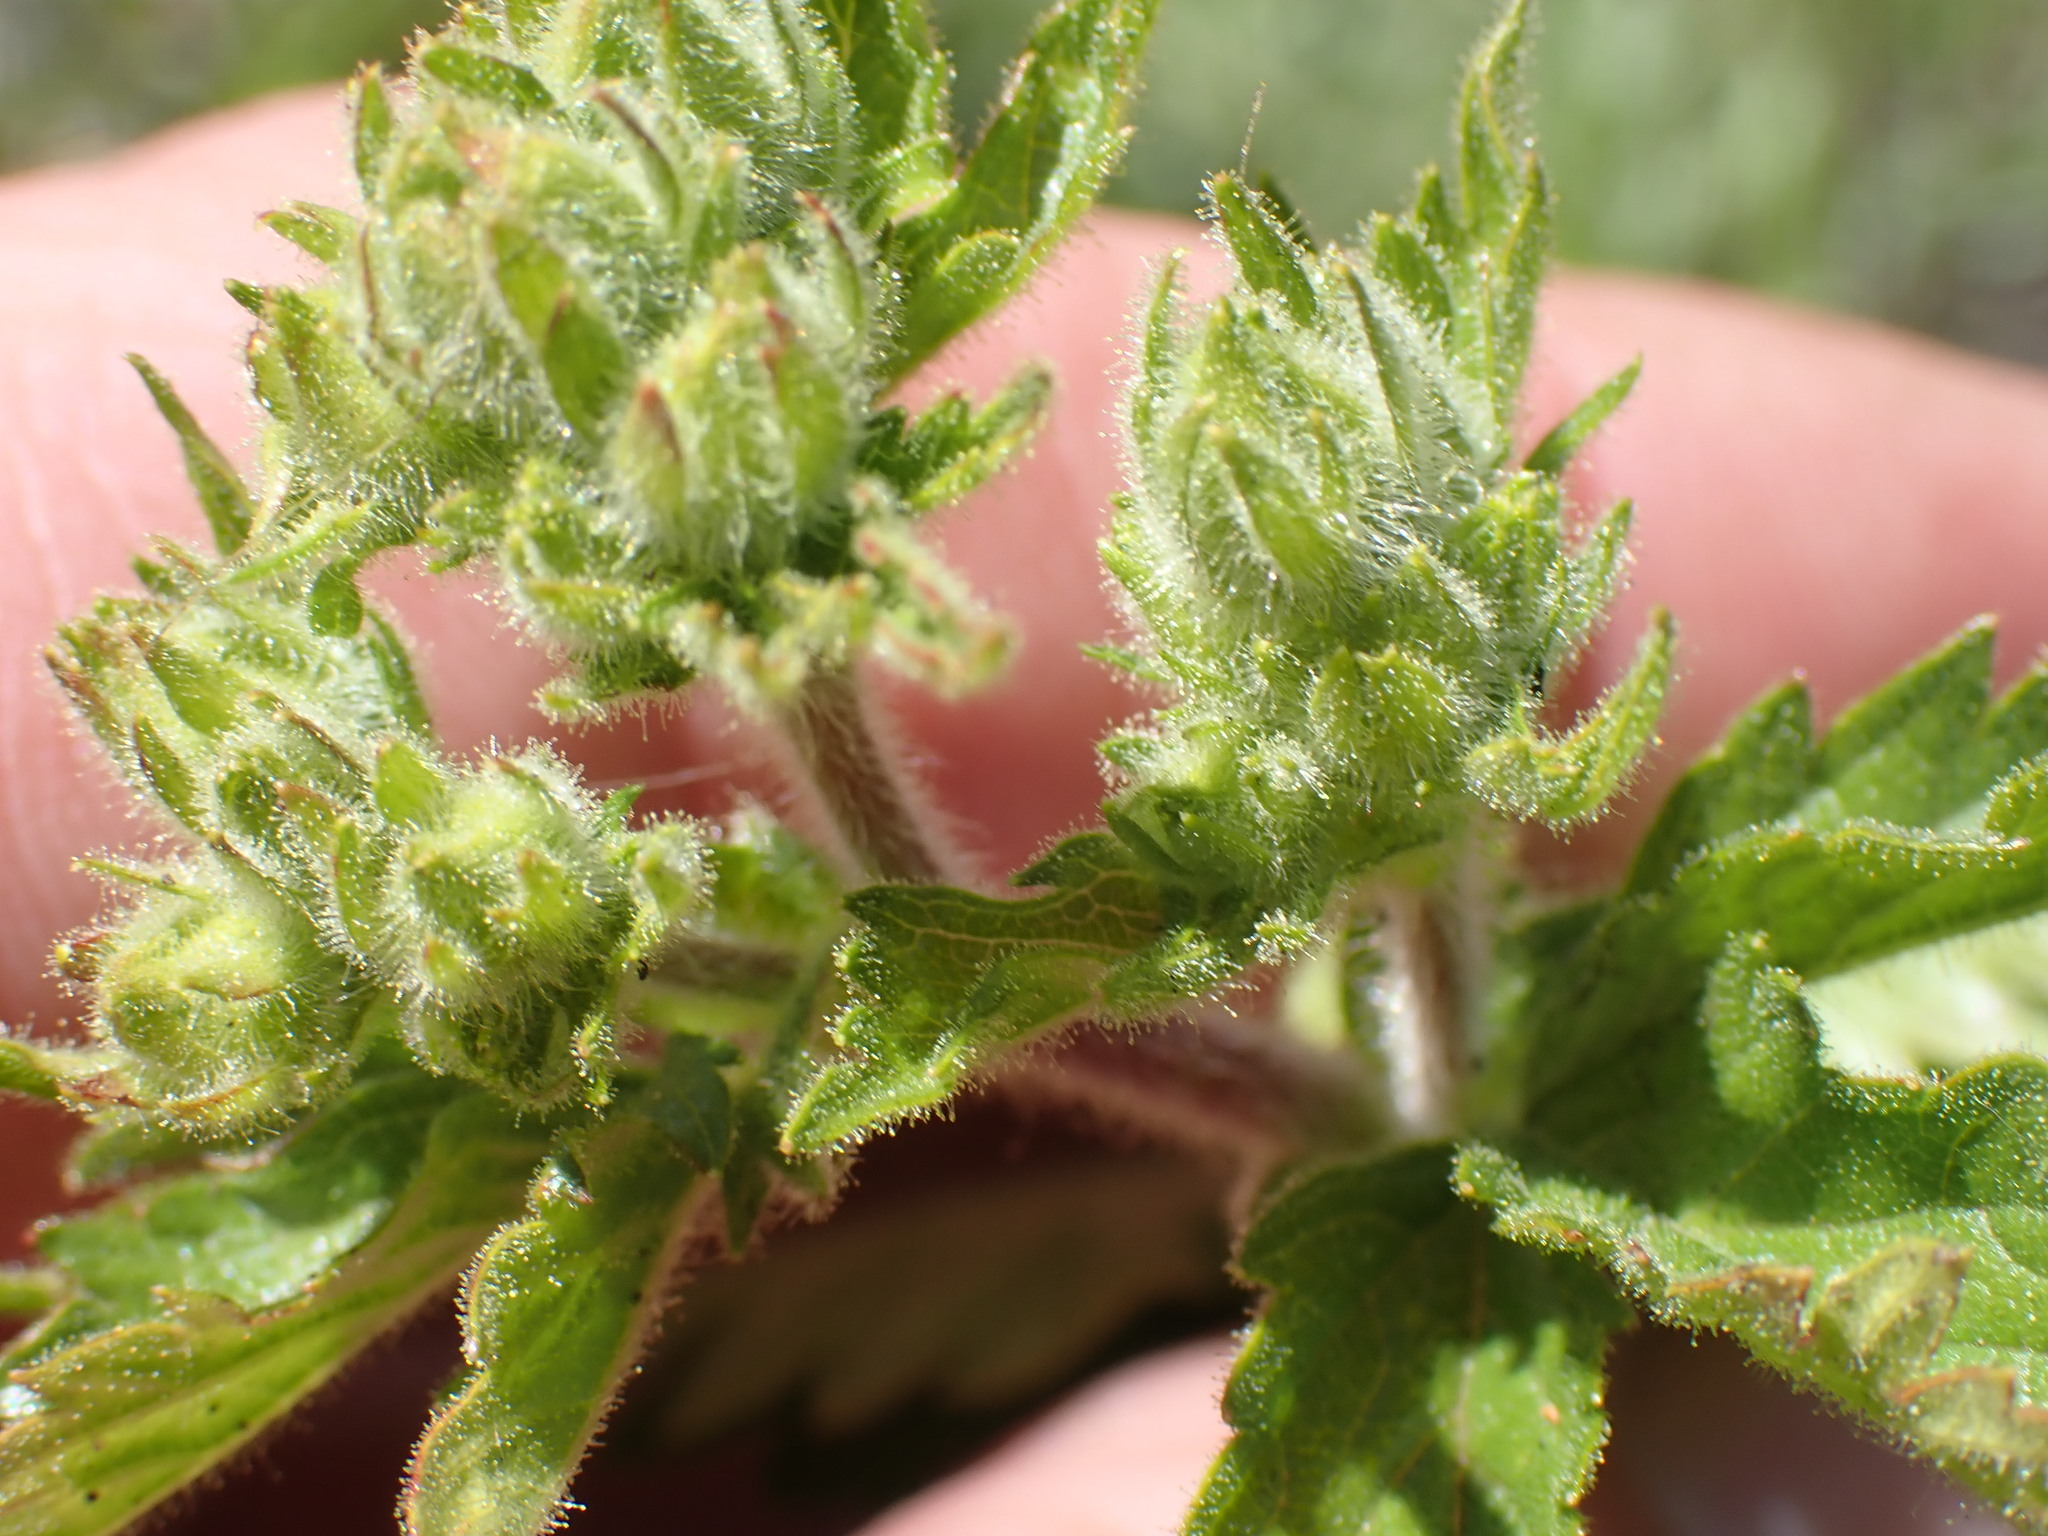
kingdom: Plantae
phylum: Tracheophyta
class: Magnoliopsida
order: Rosales
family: Rosaceae
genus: Drymocallis
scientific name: Drymocallis convallaria
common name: Cream cinquefoil
